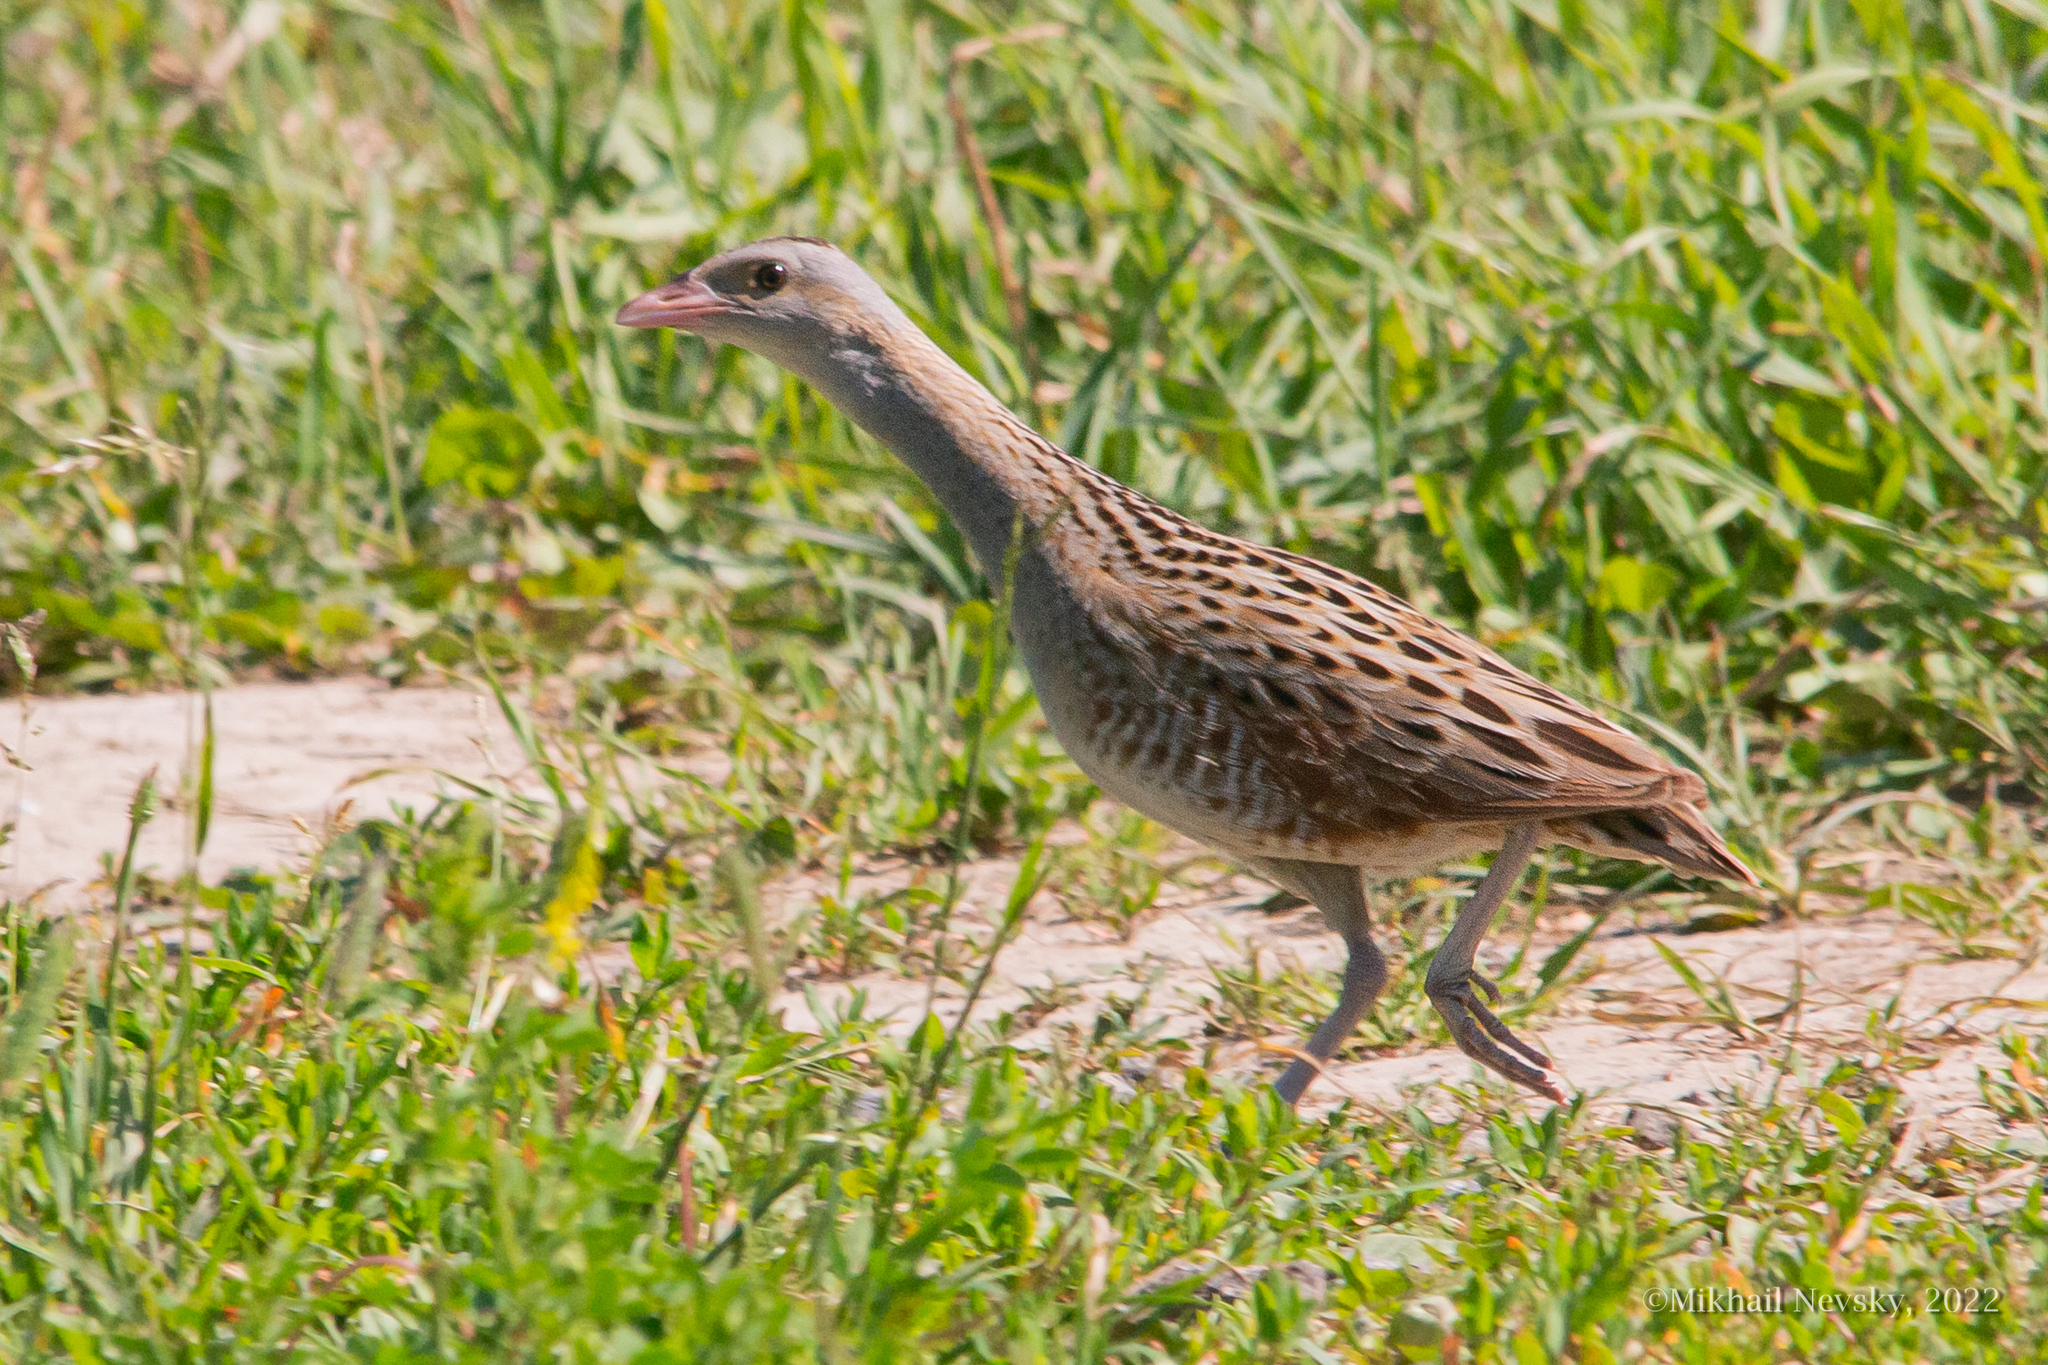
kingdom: Animalia
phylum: Chordata
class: Aves
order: Gruiformes
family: Rallidae
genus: Crex
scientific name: Crex crex
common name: Corn crake
